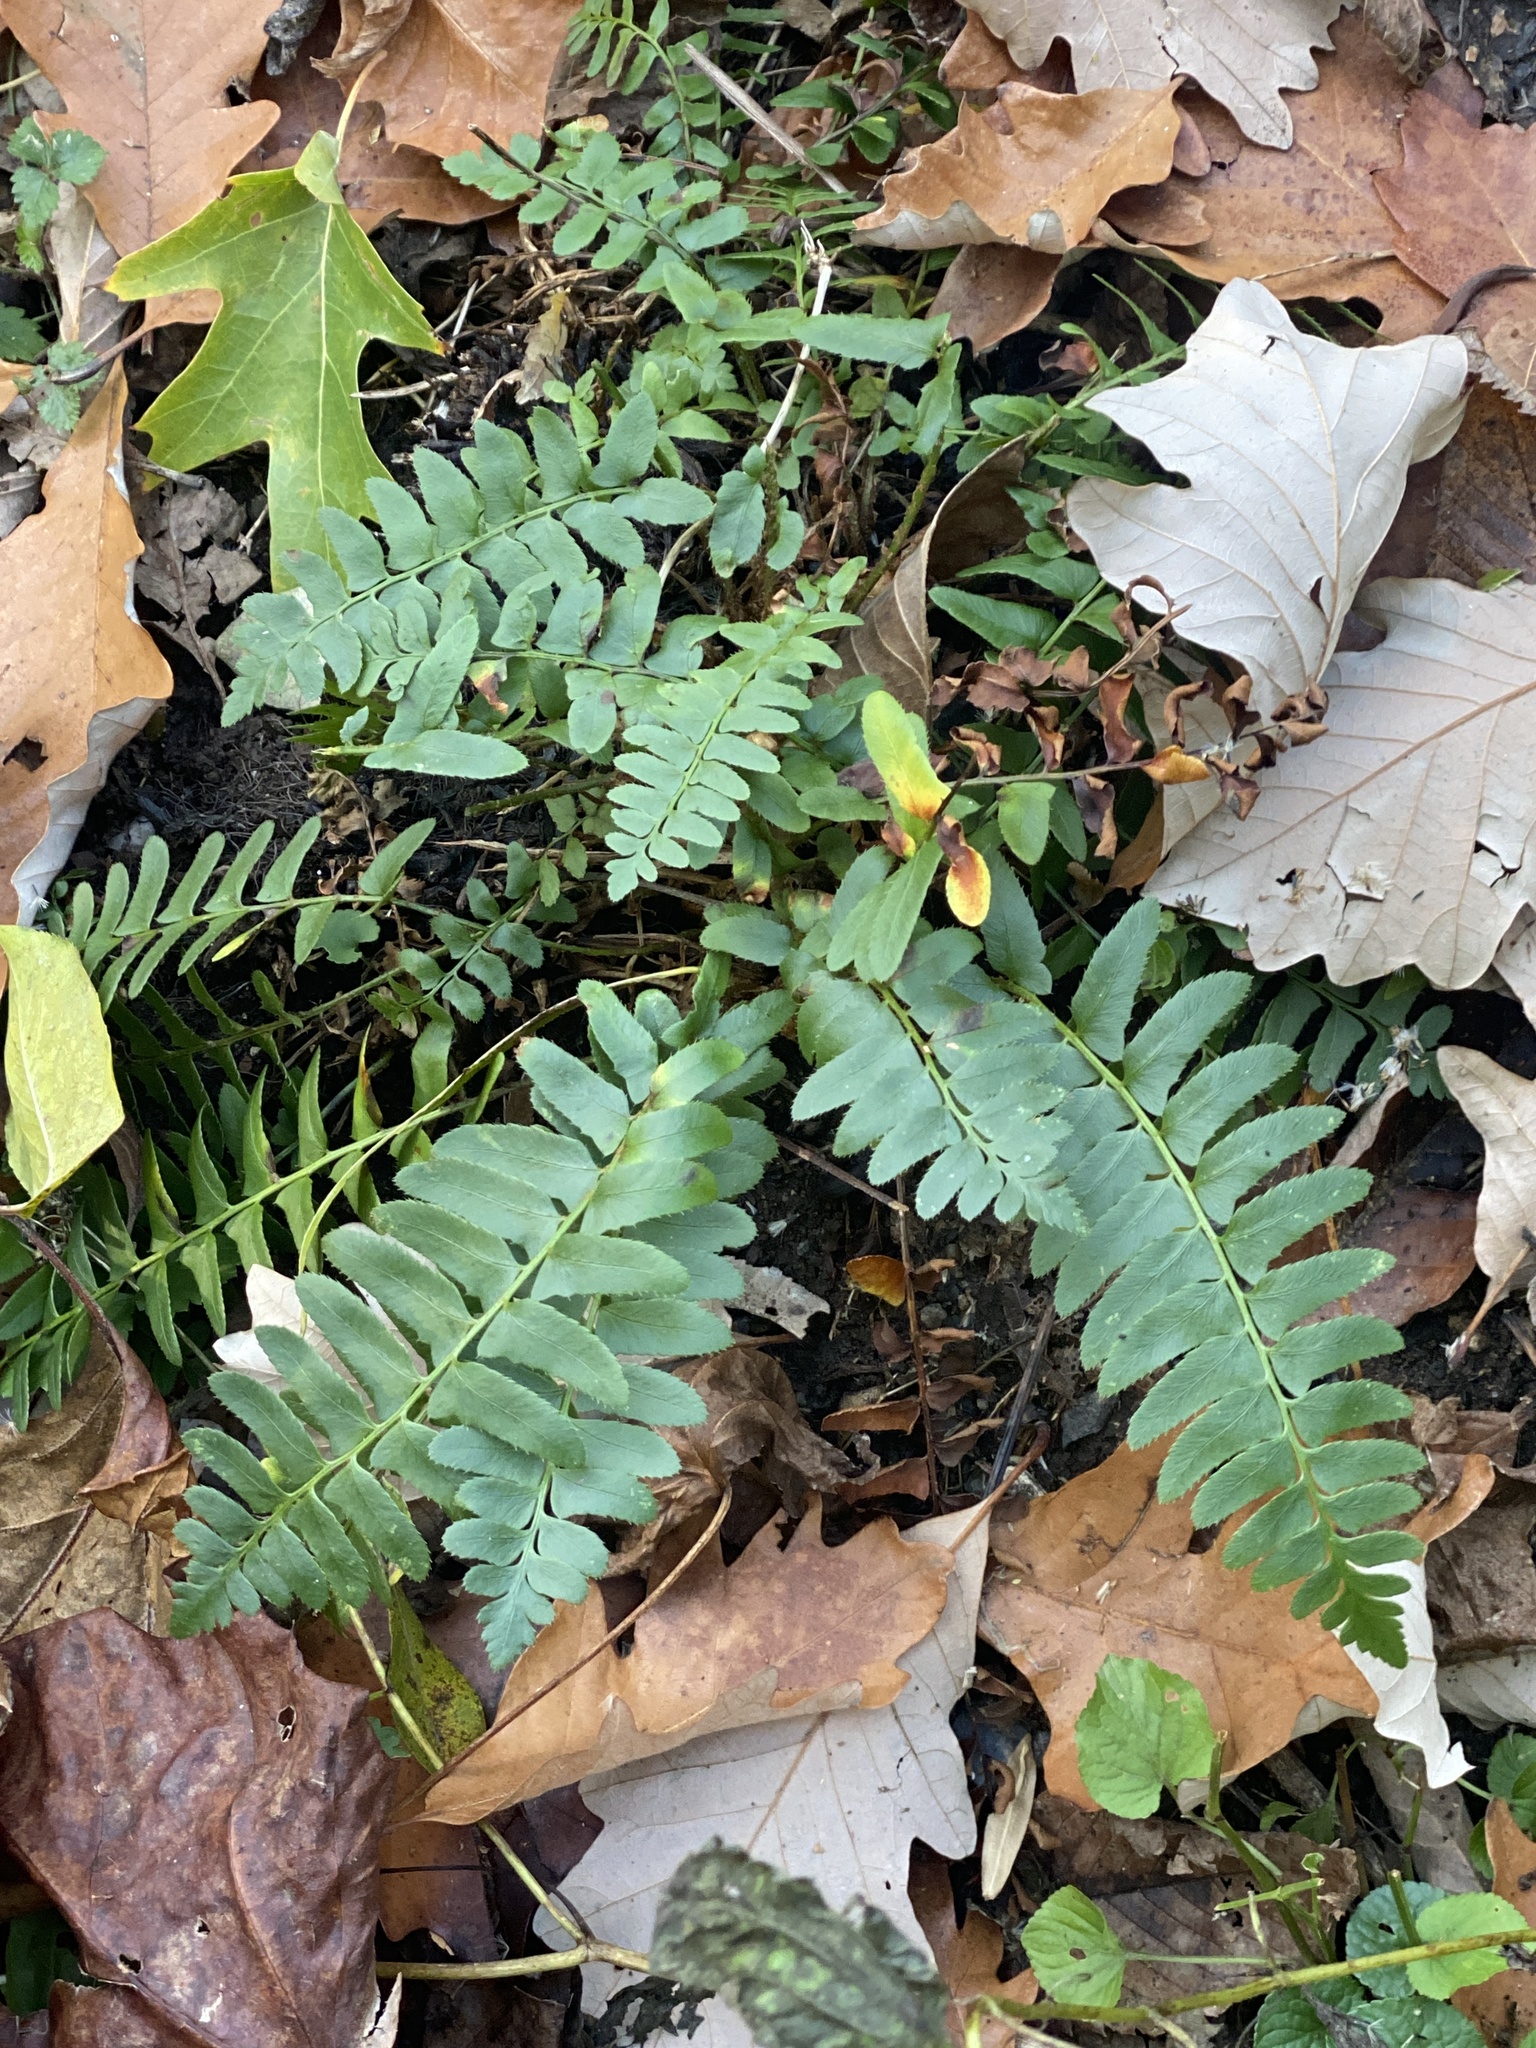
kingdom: Plantae
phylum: Tracheophyta
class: Polypodiopsida
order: Polypodiales
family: Dryopteridaceae
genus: Polystichum
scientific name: Polystichum acrostichoides
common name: Christmas fern
